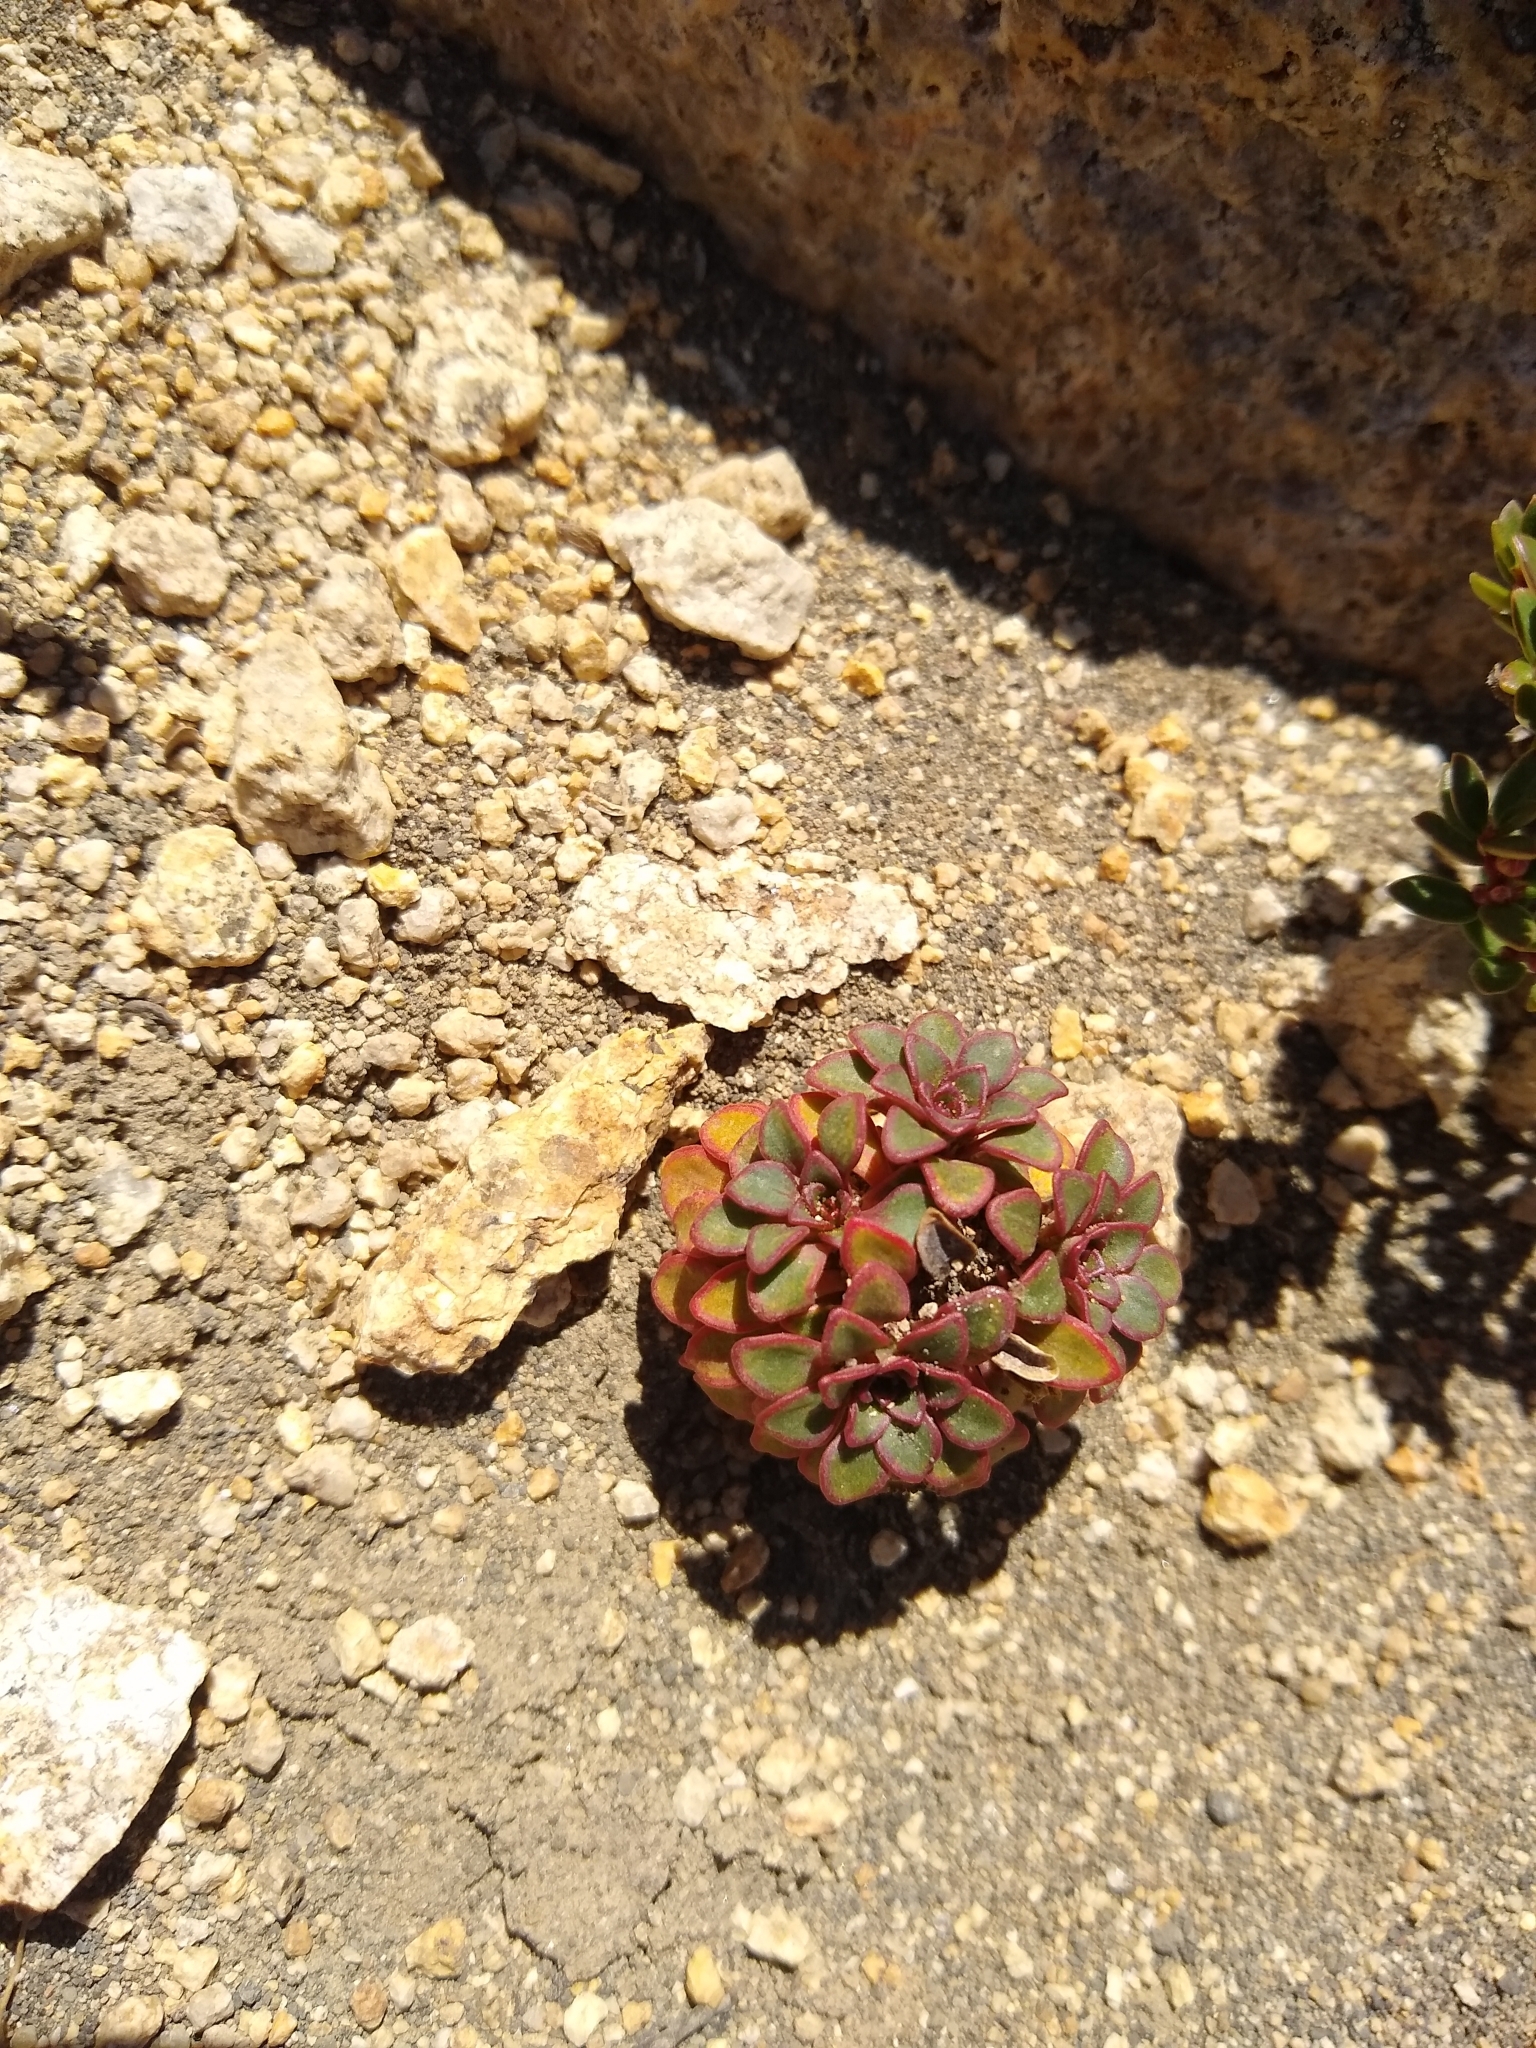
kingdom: Plantae
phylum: Tracheophyta
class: Magnoliopsida
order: Malpighiales
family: Violaceae
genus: Viola
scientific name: Viola sacculus
